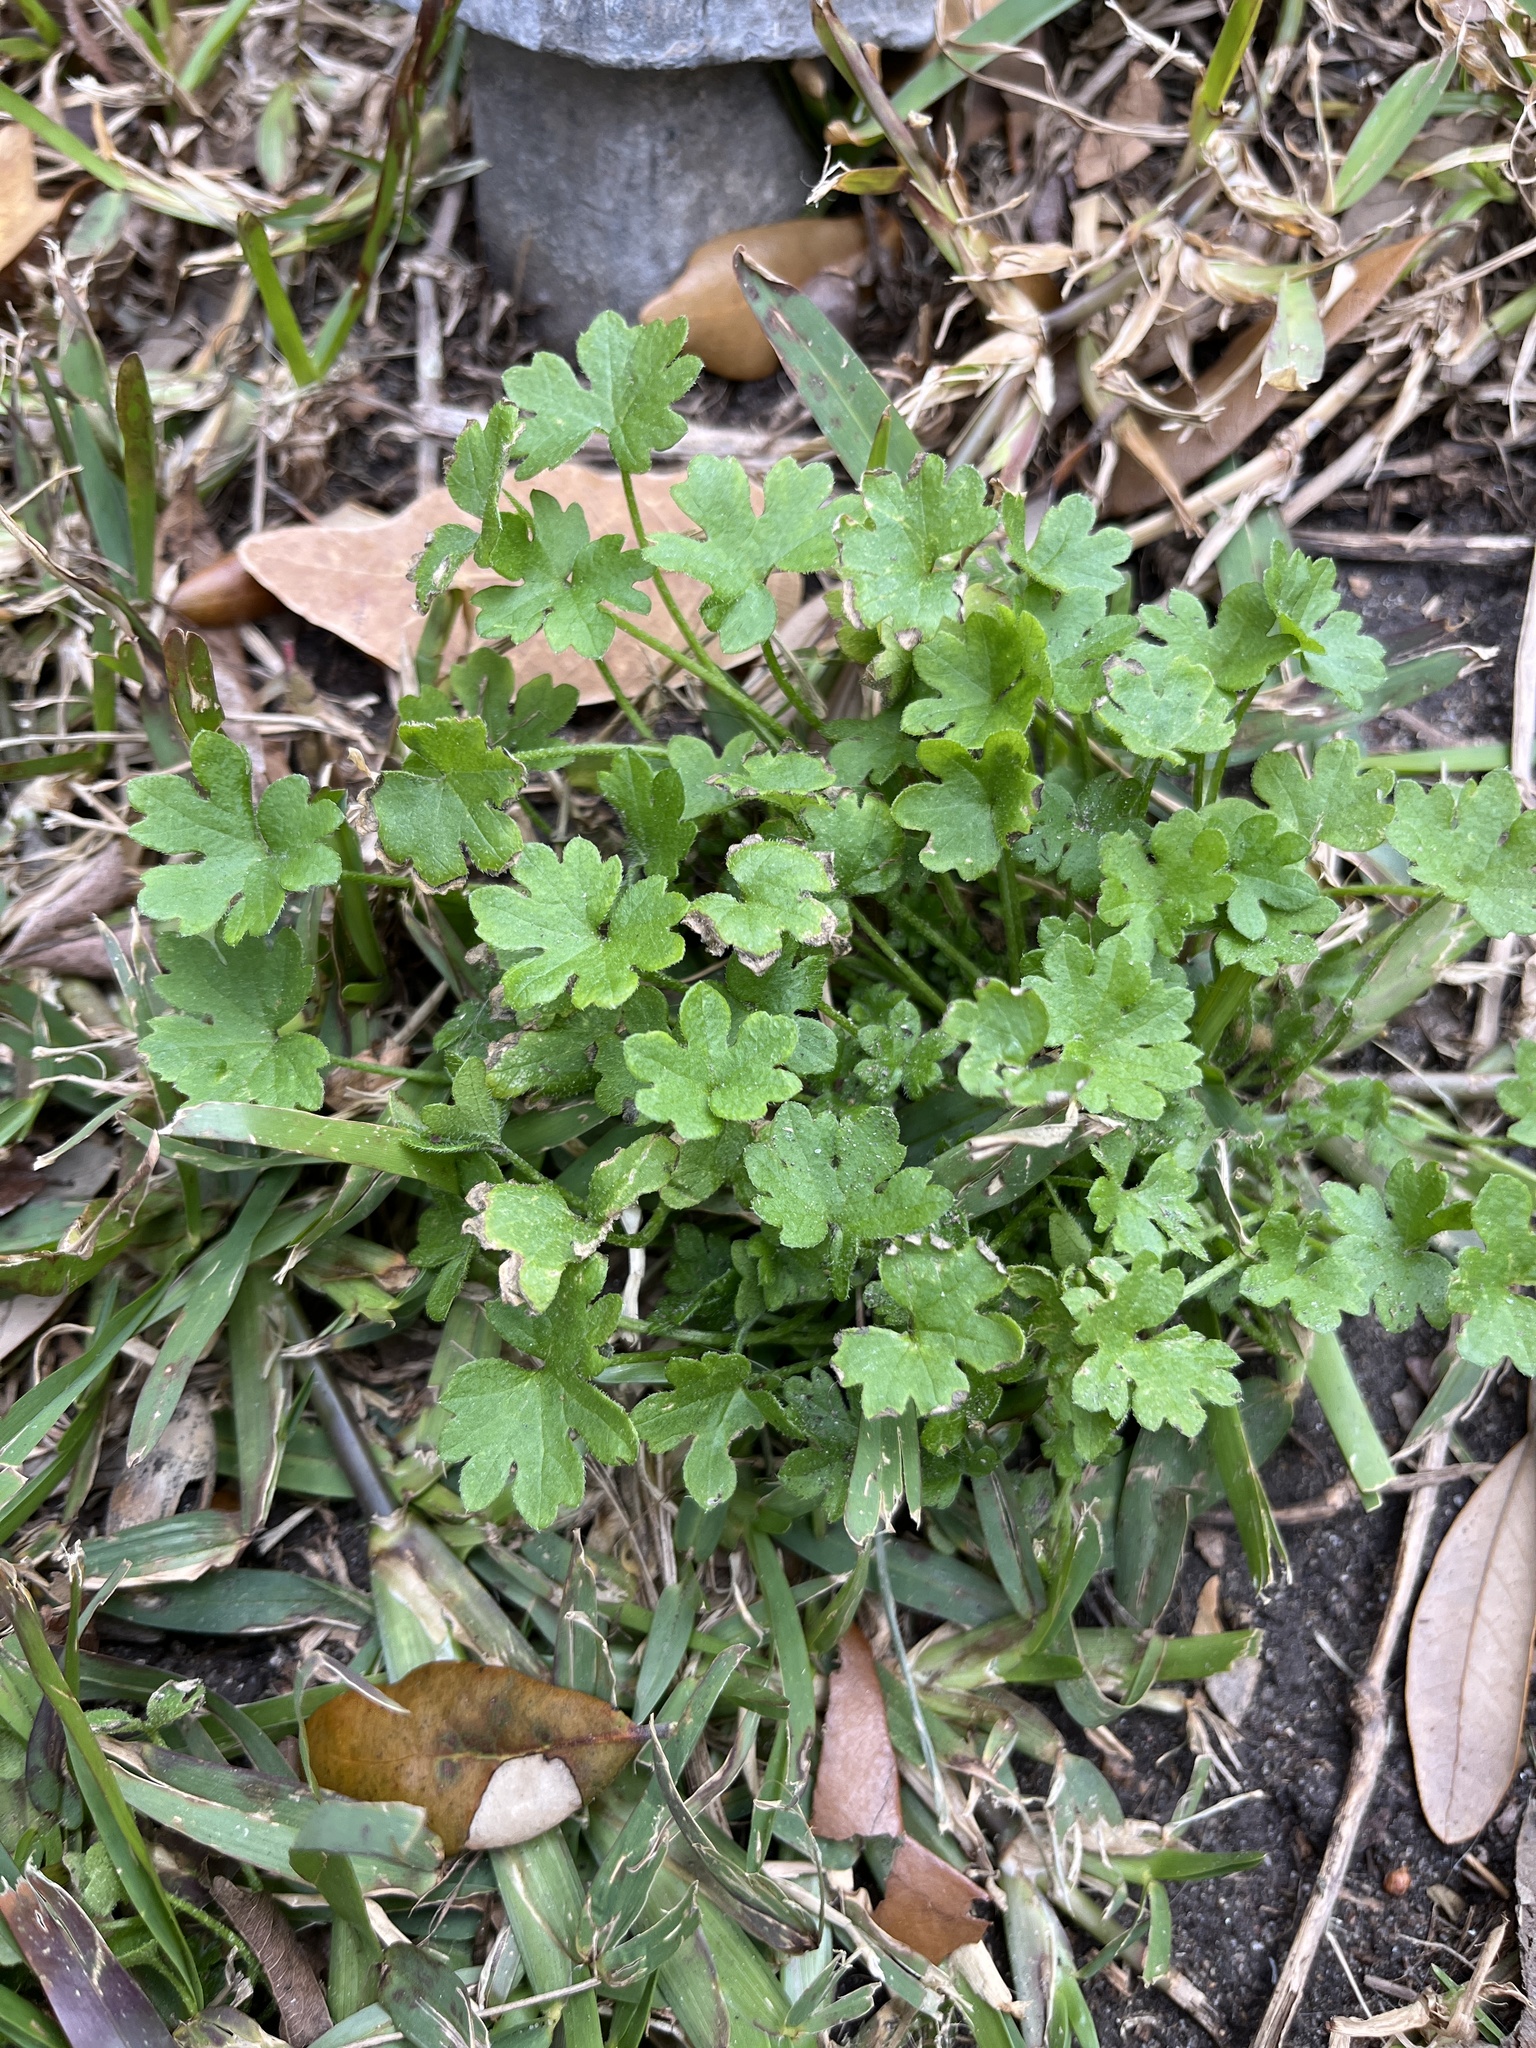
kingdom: Plantae
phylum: Tracheophyta
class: Magnoliopsida
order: Apiales
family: Apiaceae
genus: Bowlesia
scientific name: Bowlesia incana
